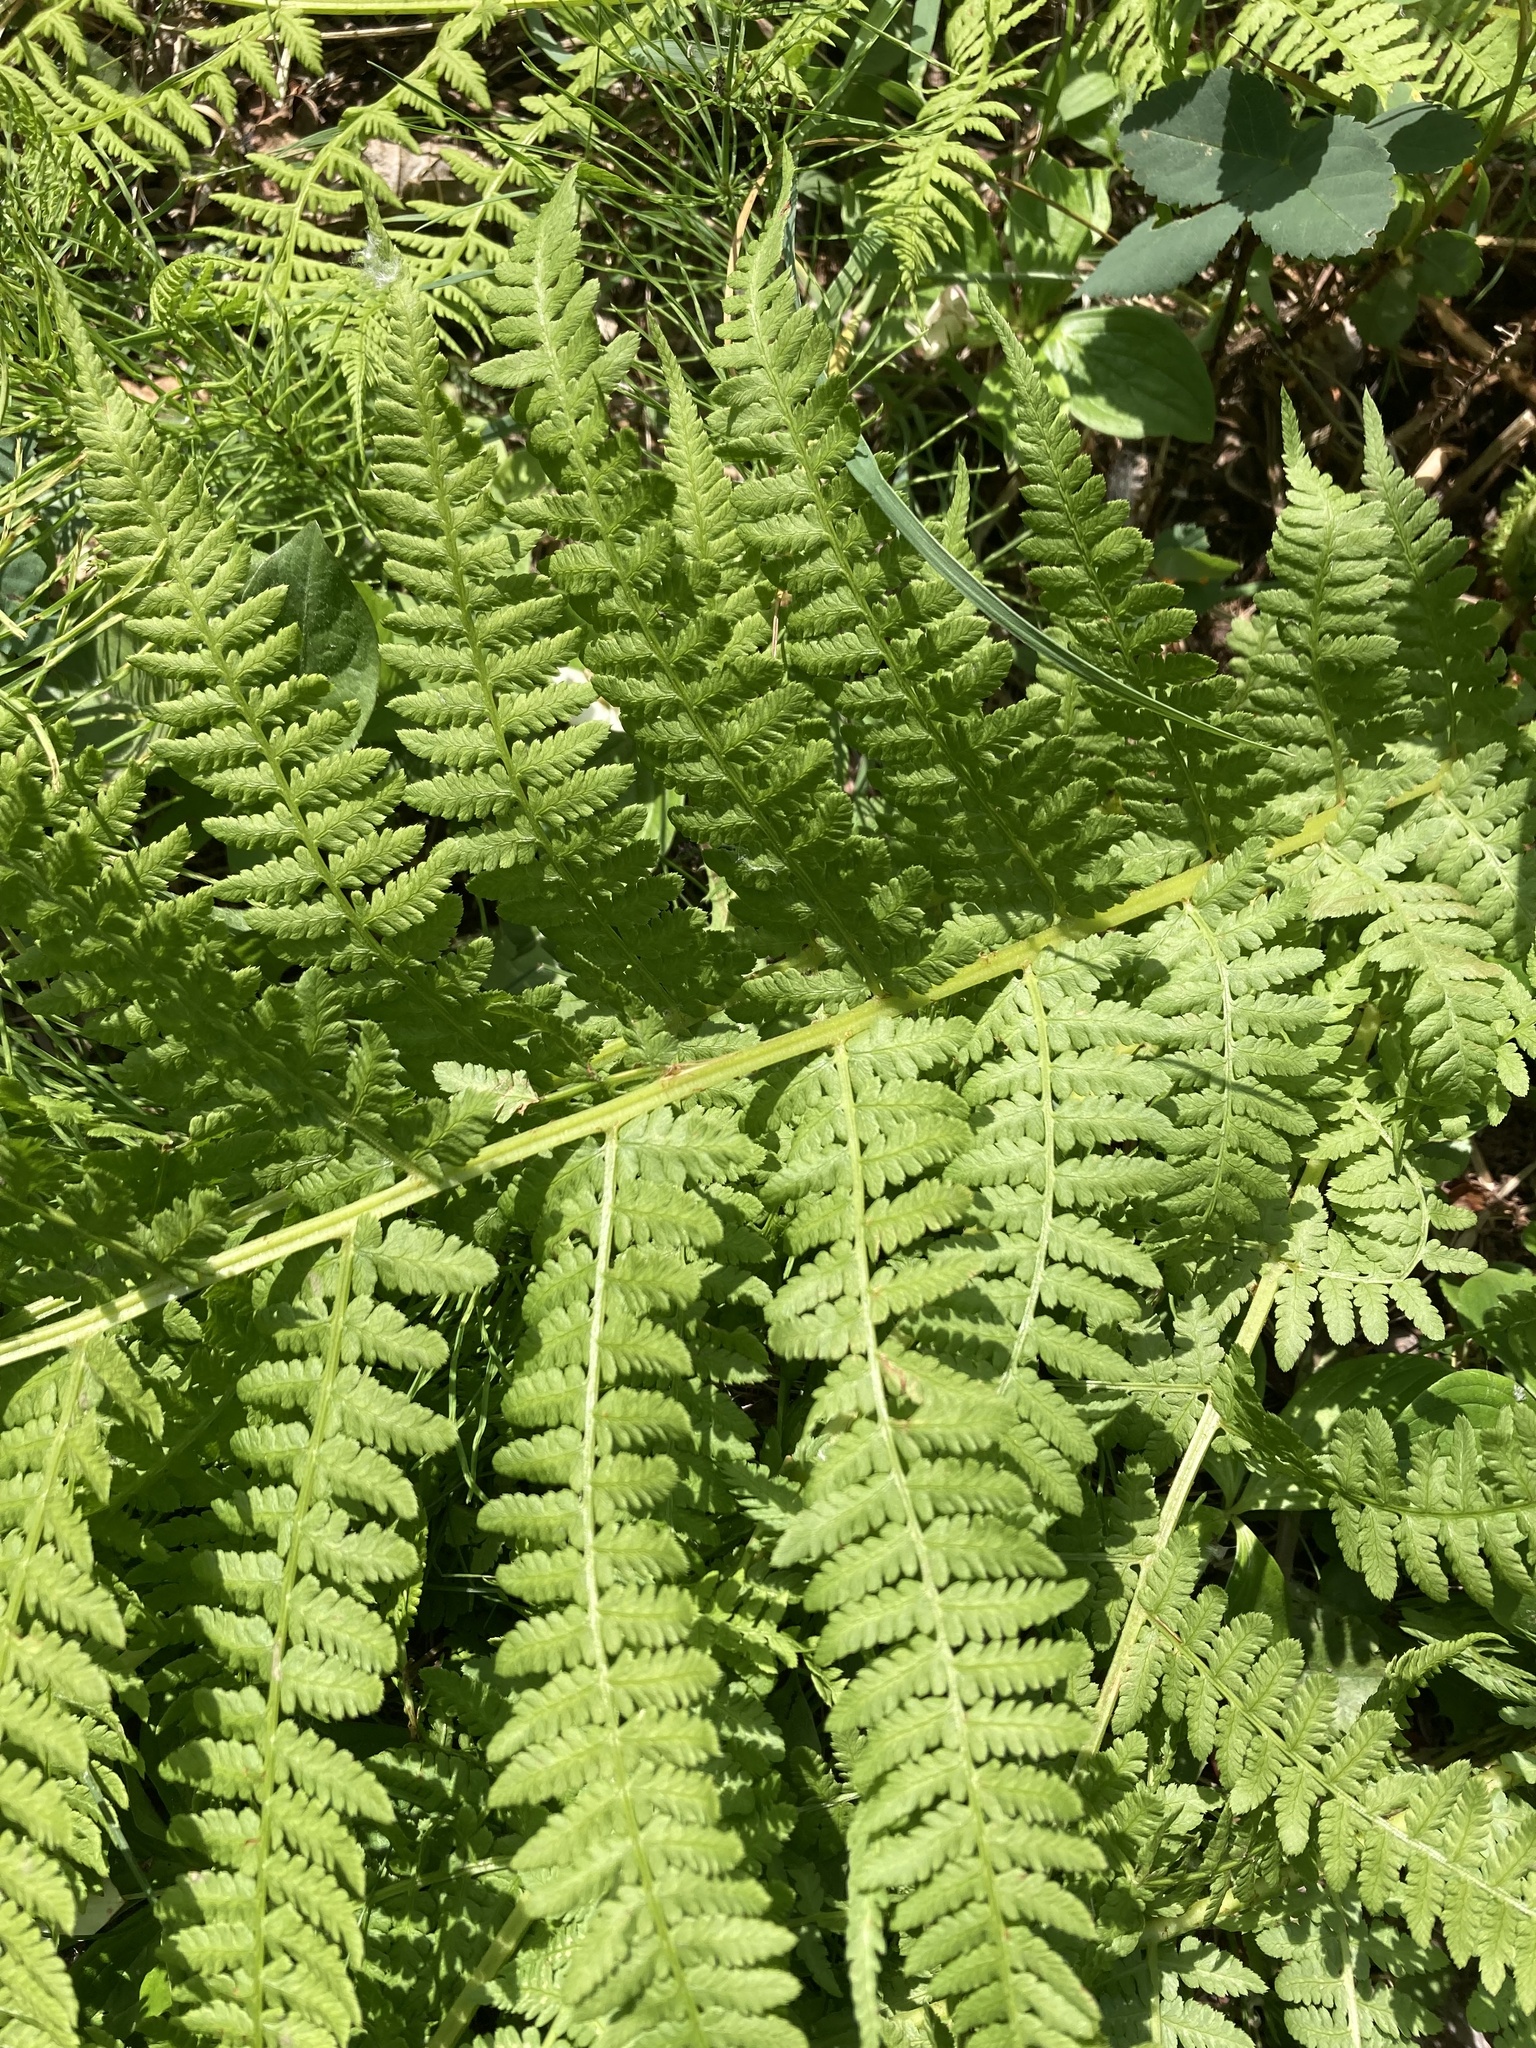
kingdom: Plantae
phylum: Tracheophyta
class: Polypodiopsida
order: Polypodiales
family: Athyriaceae
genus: Athyrium
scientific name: Athyrium filix-femina
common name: Lady fern
